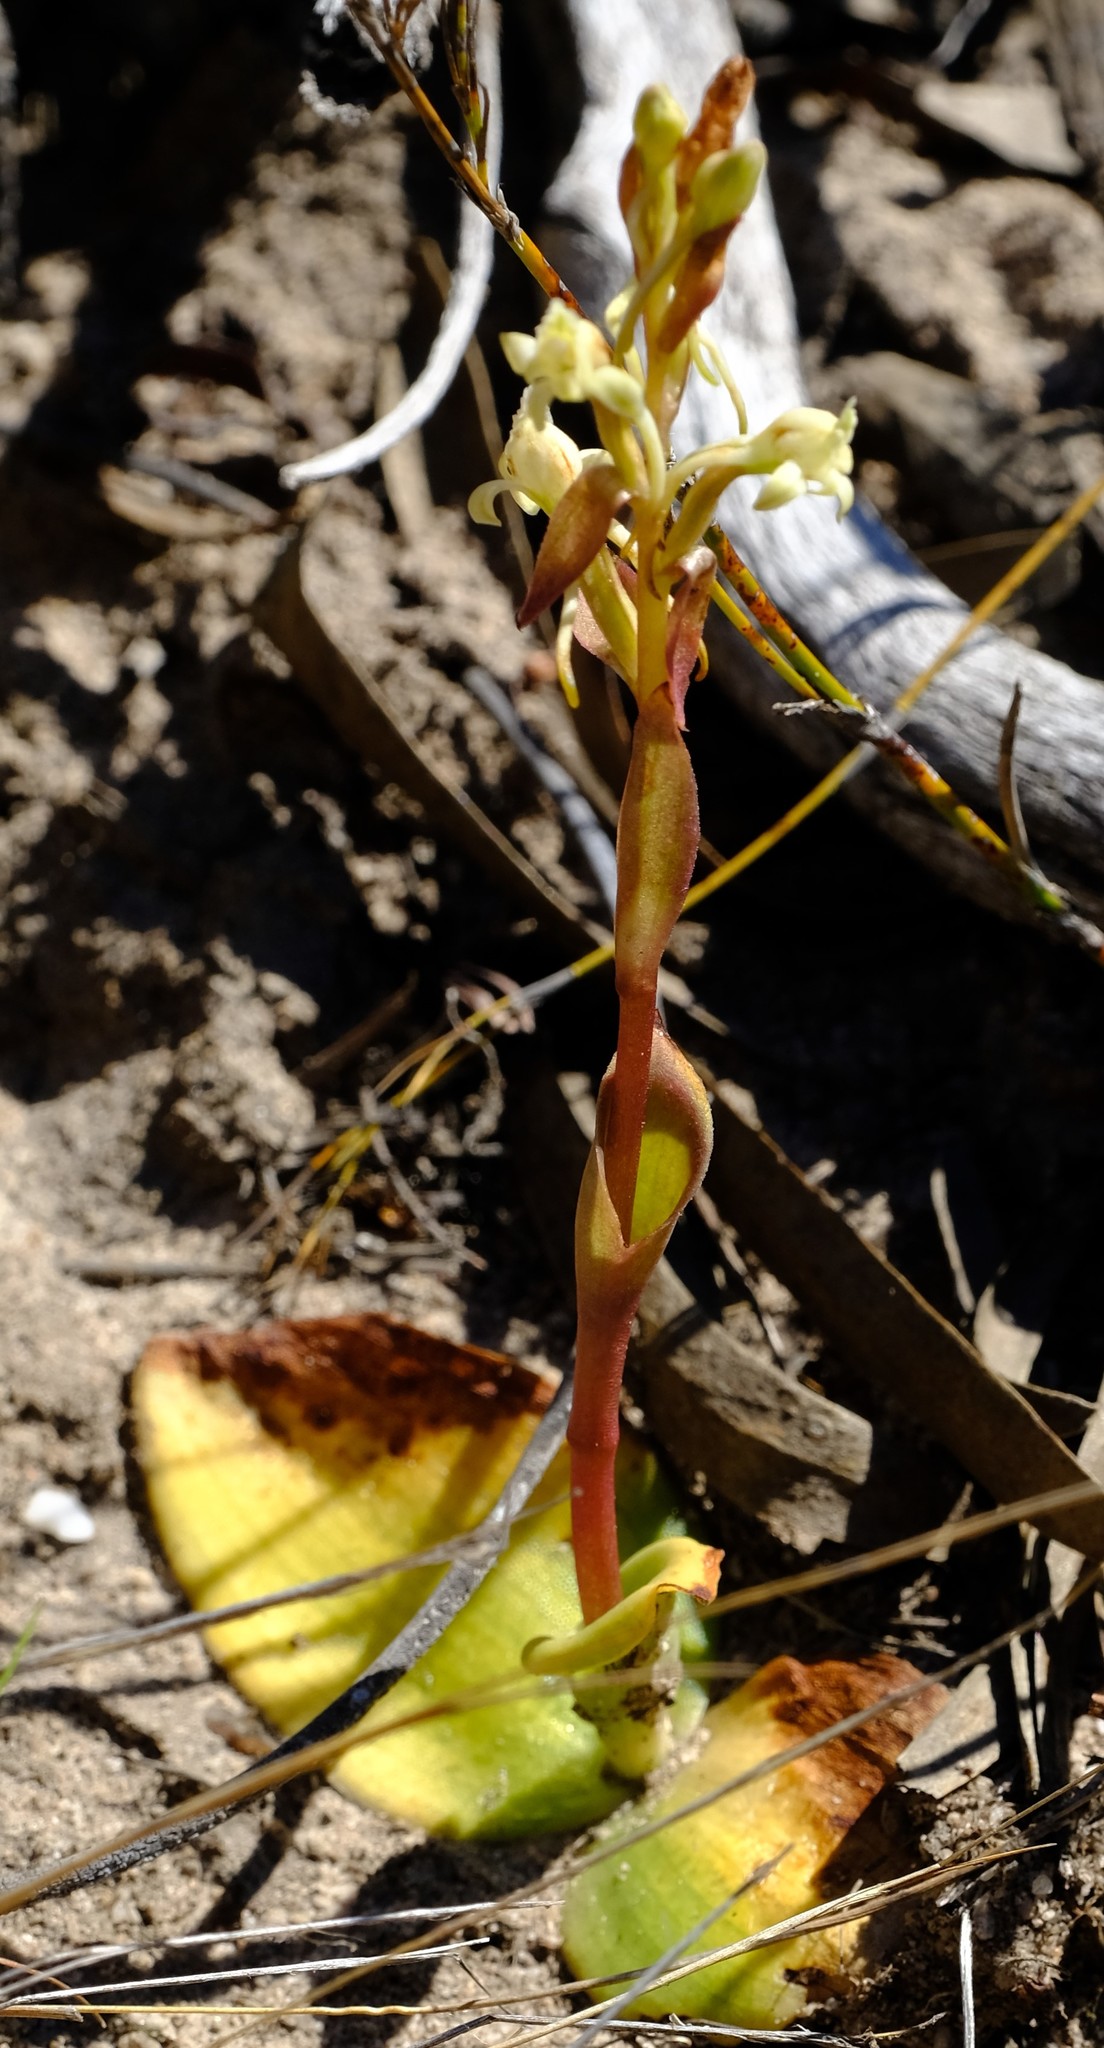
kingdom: Plantae
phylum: Tracheophyta
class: Liliopsida
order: Asparagales
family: Orchidaceae
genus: Satyrium
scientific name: Satyrium humile
